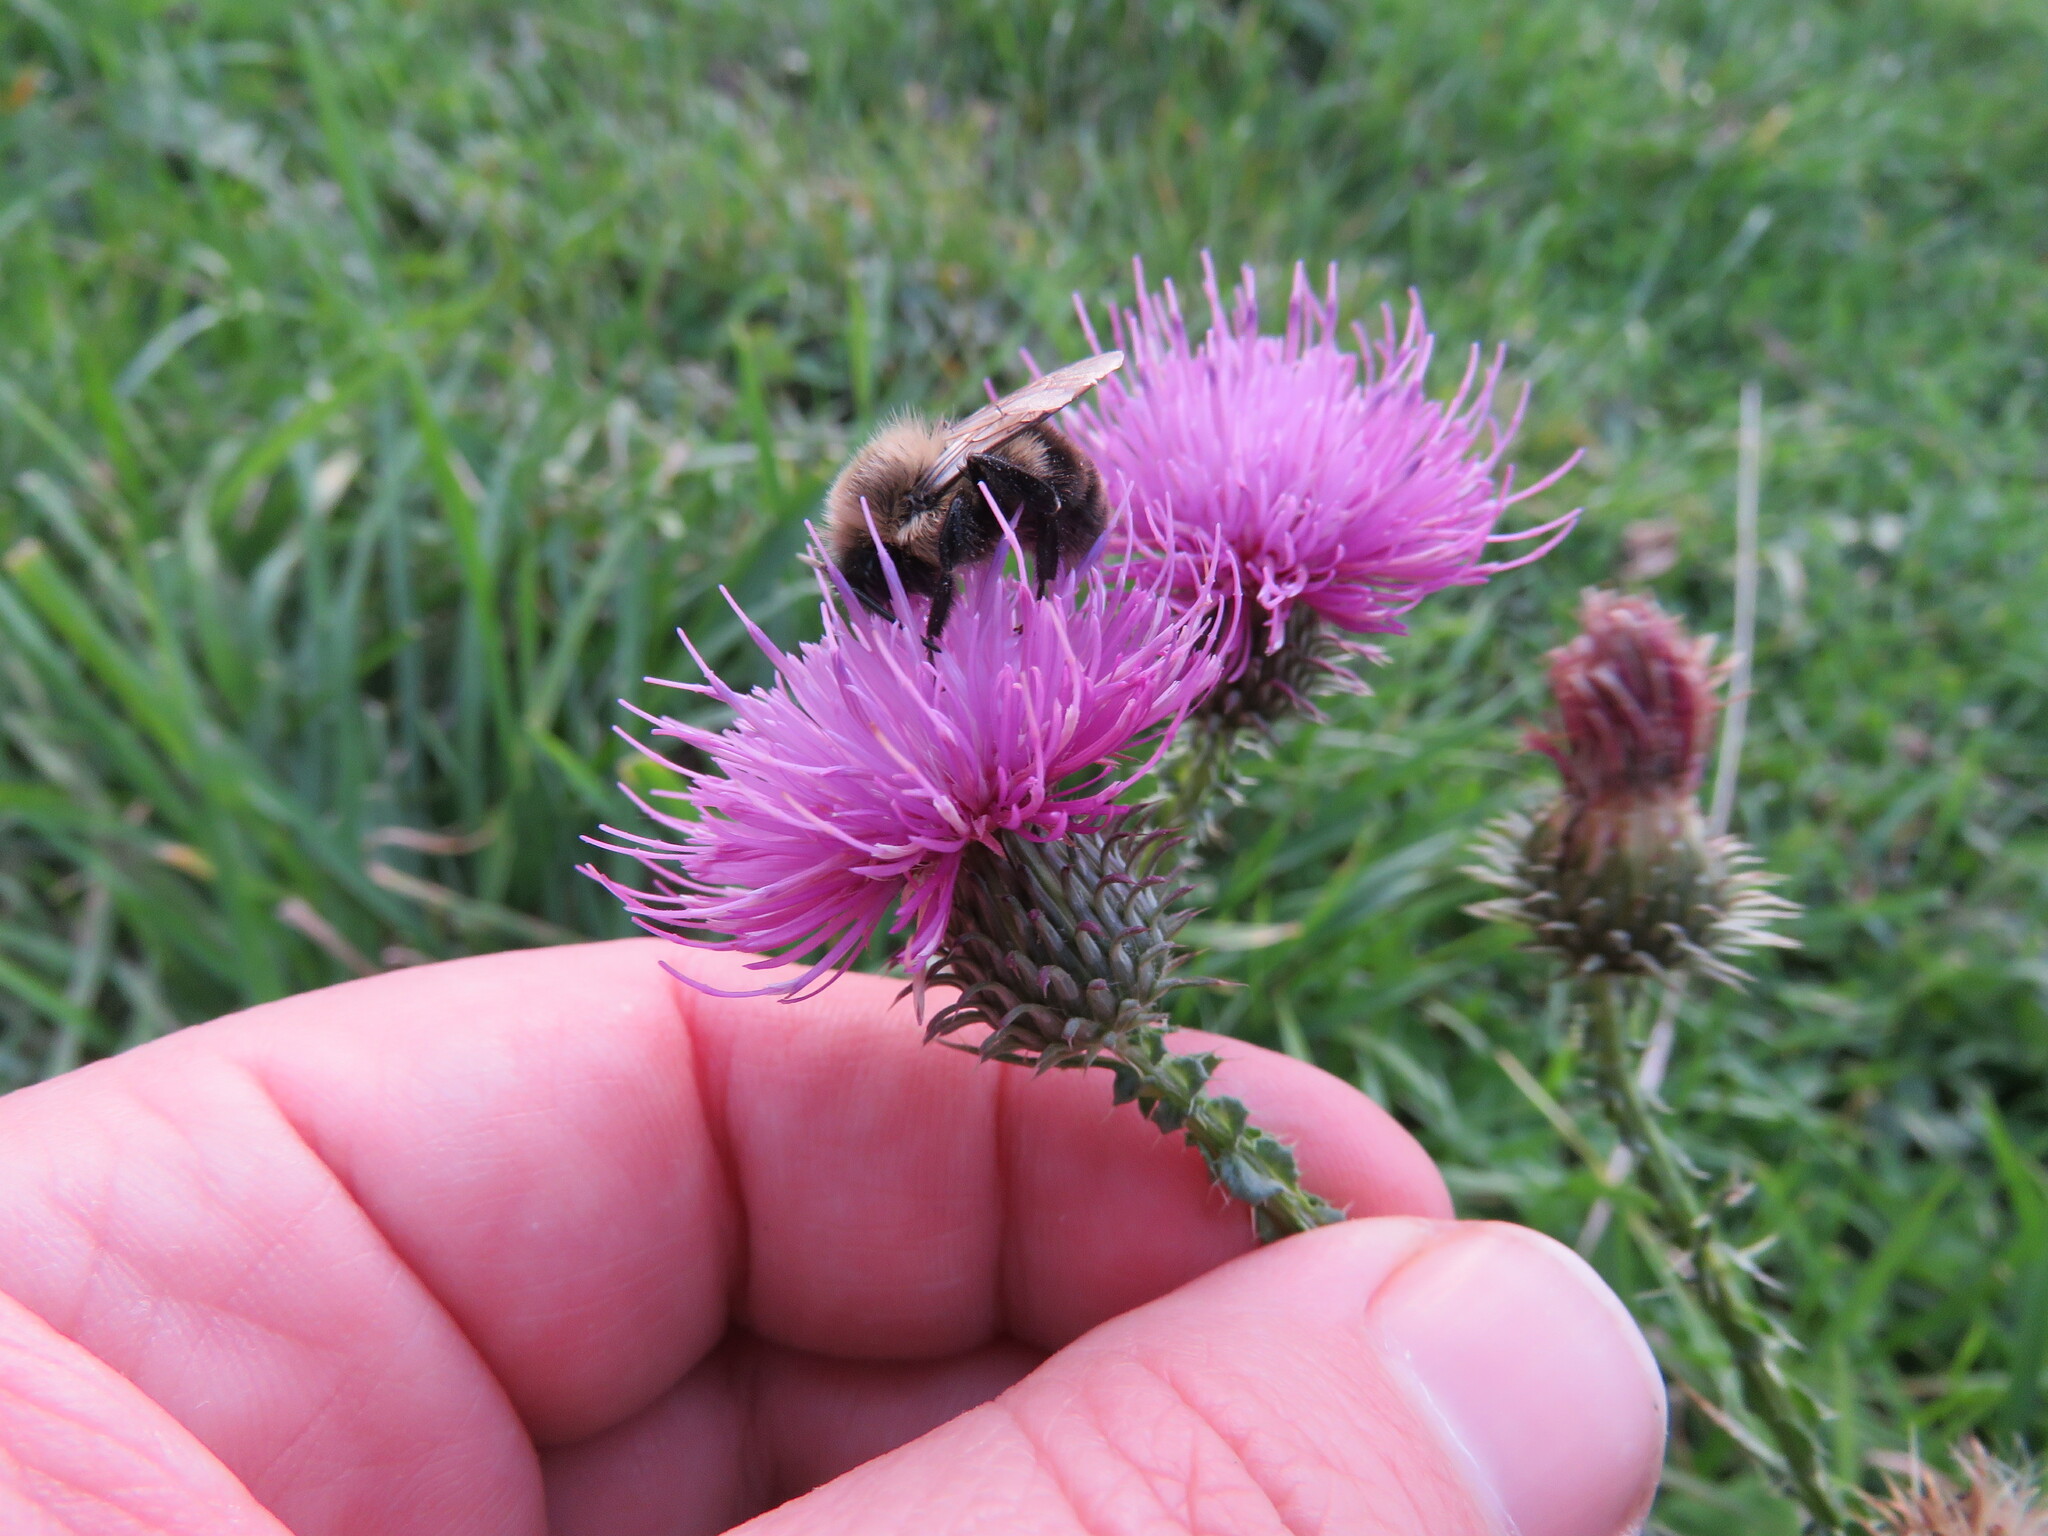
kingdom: Animalia
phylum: Arthropoda
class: Insecta
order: Hymenoptera
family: Apidae
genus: Bombus
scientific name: Bombus impatiens
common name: Common eastern bumble bee
